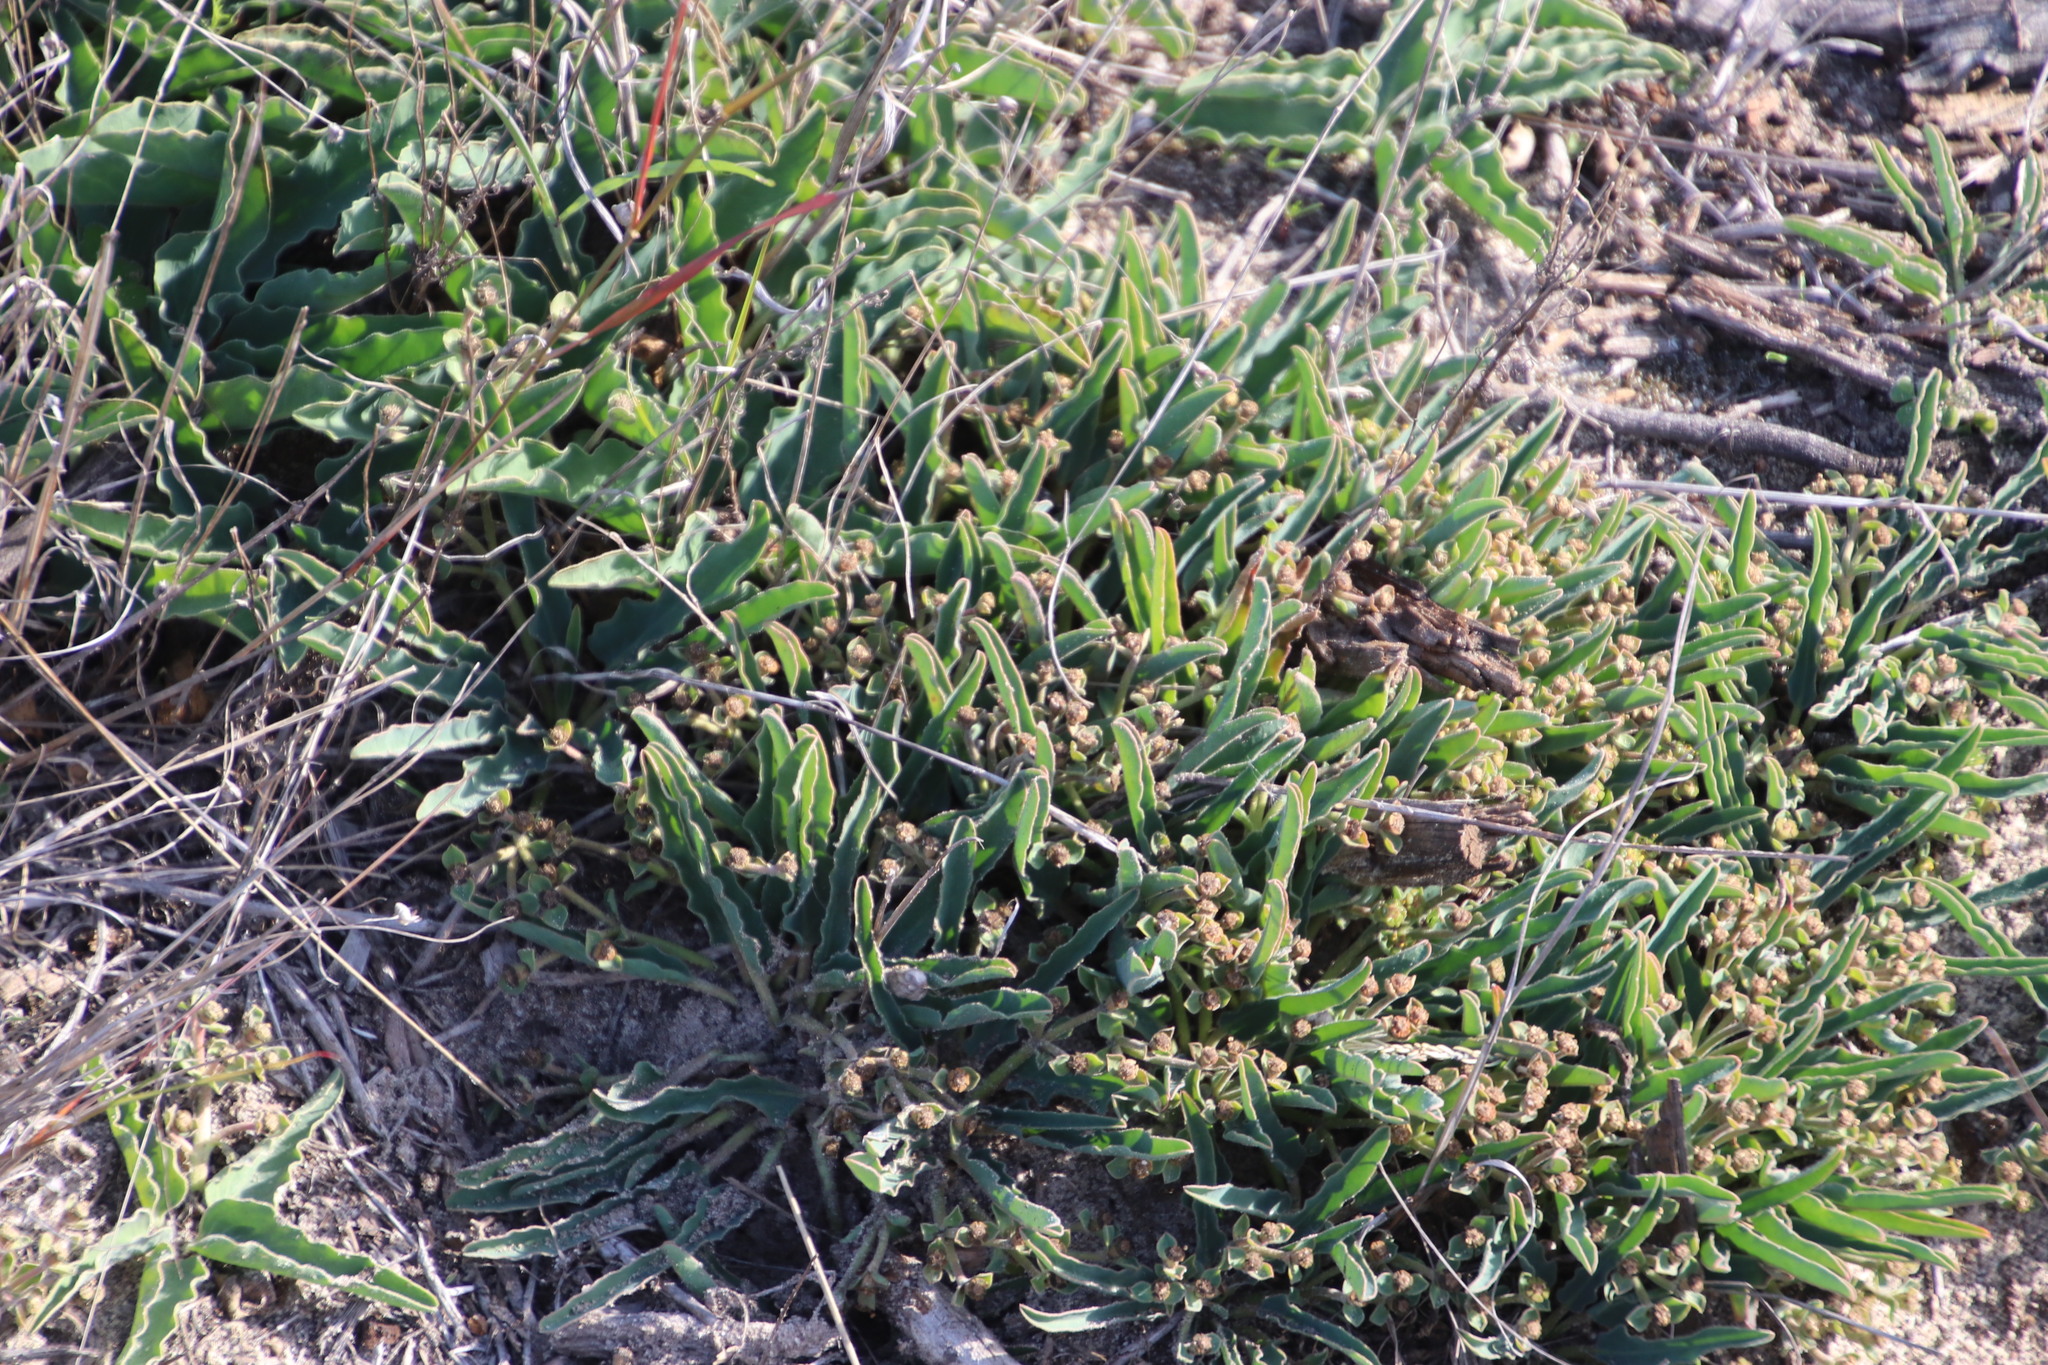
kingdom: Plantae
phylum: Tracheophyta
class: Magnoliopsida
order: Malpighiales
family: Euphorbiaceae
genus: Euphorbia
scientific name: Euphorbia tuberosa
